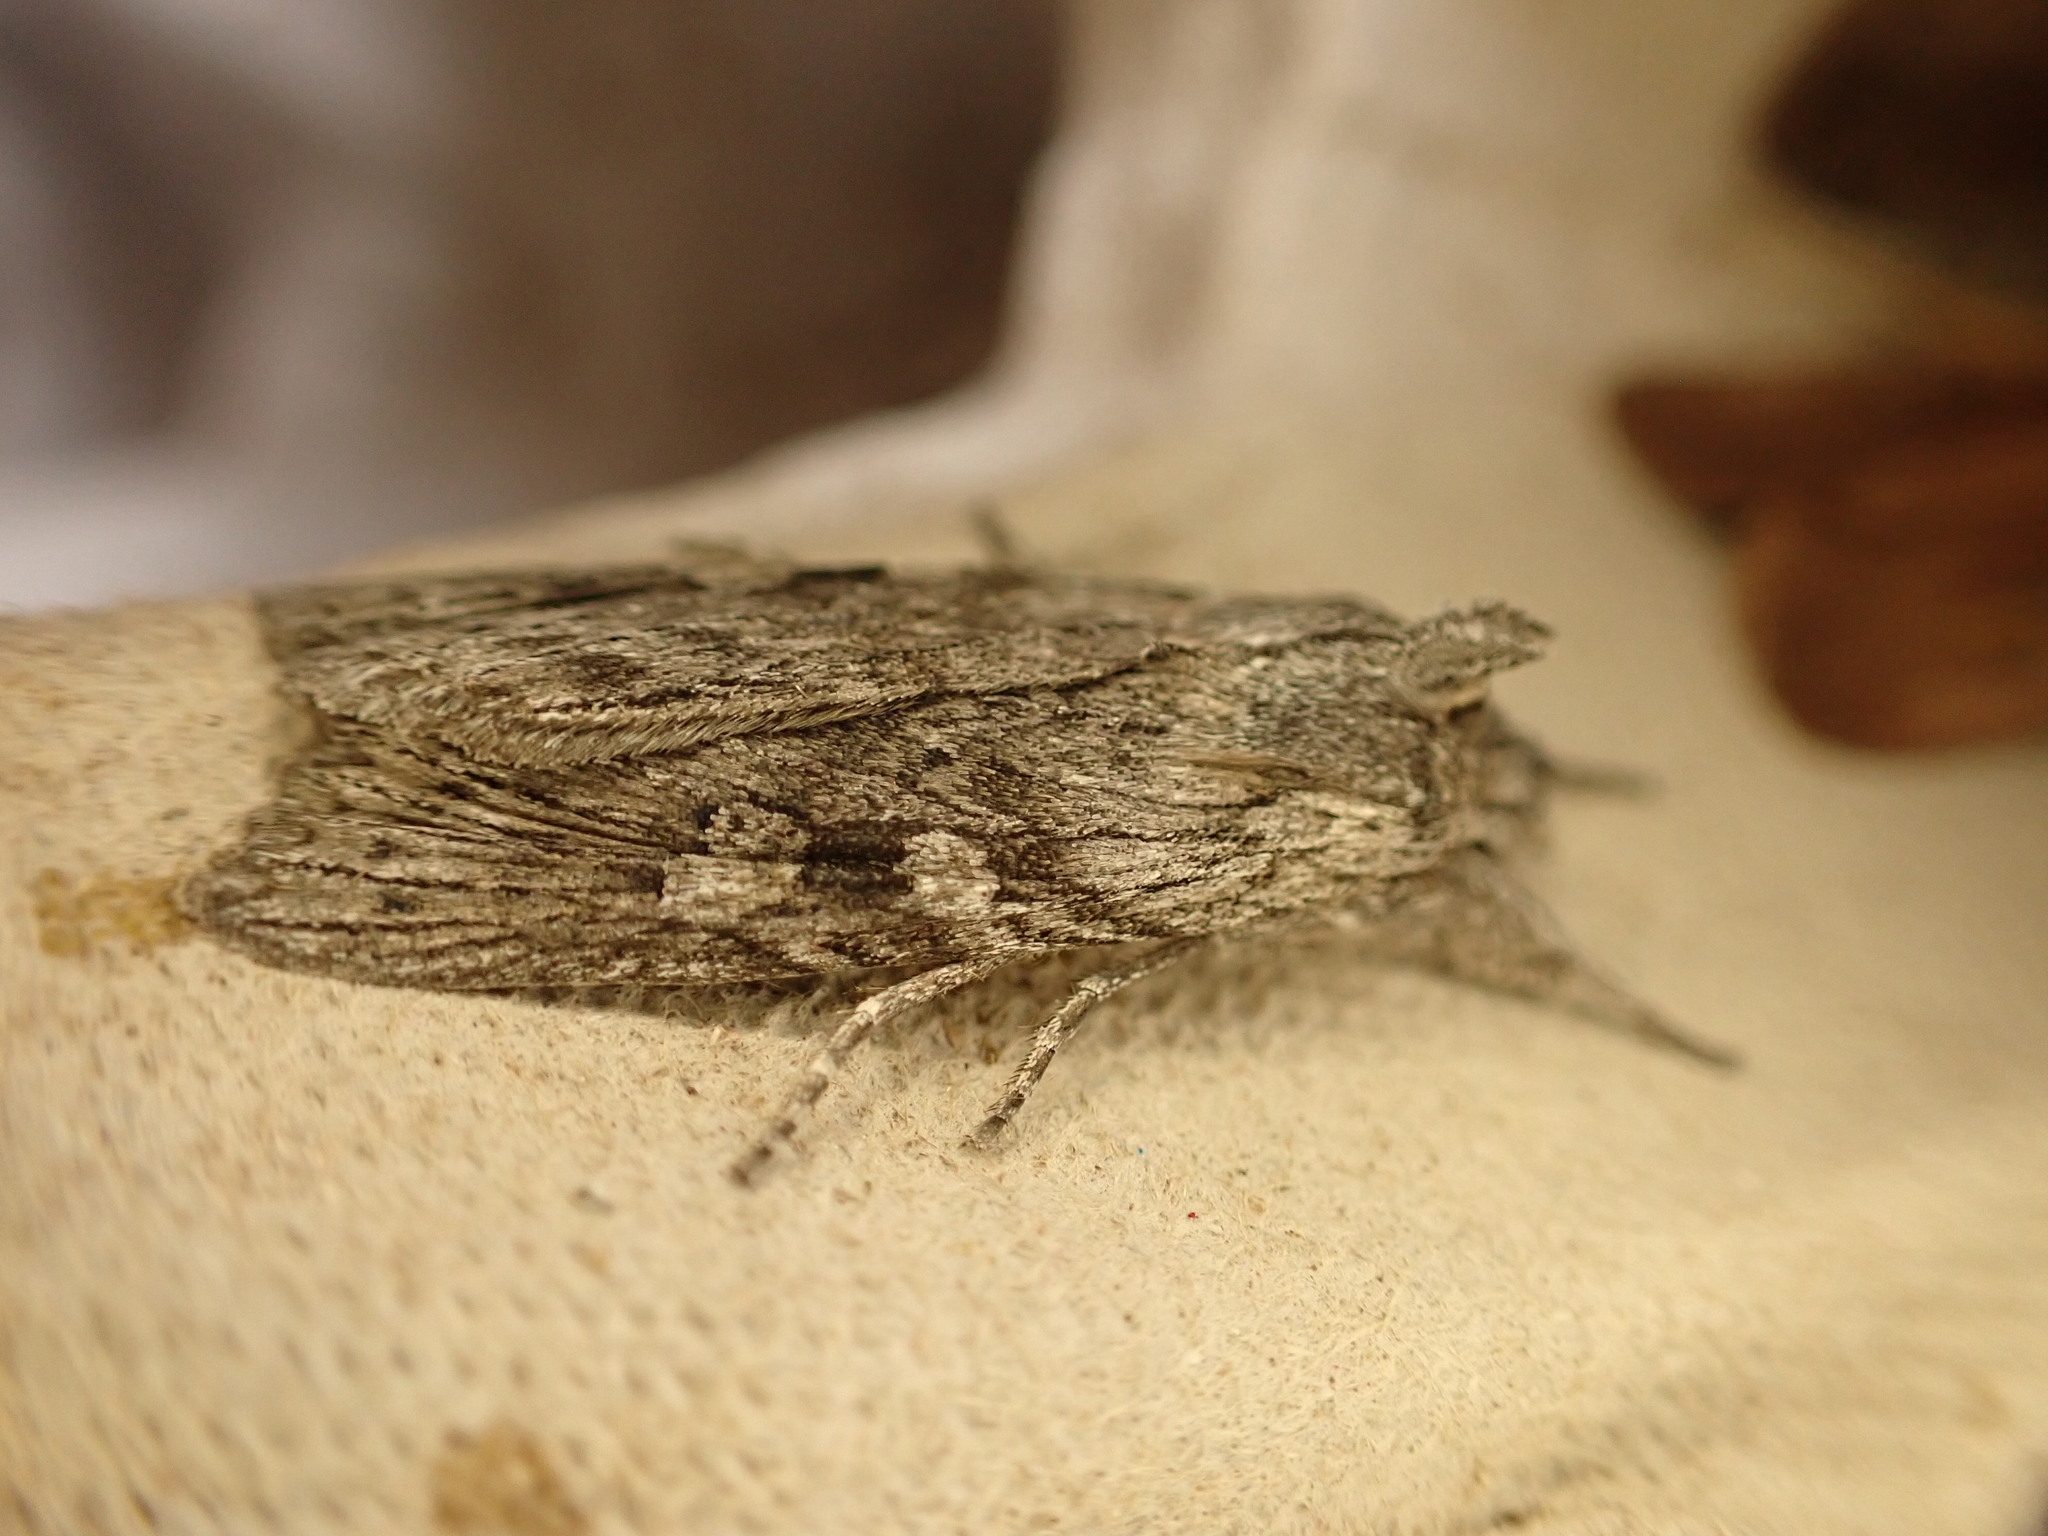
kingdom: Animalia
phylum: Arthropoda
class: Insecta
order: Lepidoptera
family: Noctuidae
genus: Physetica
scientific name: Physetica phricias
